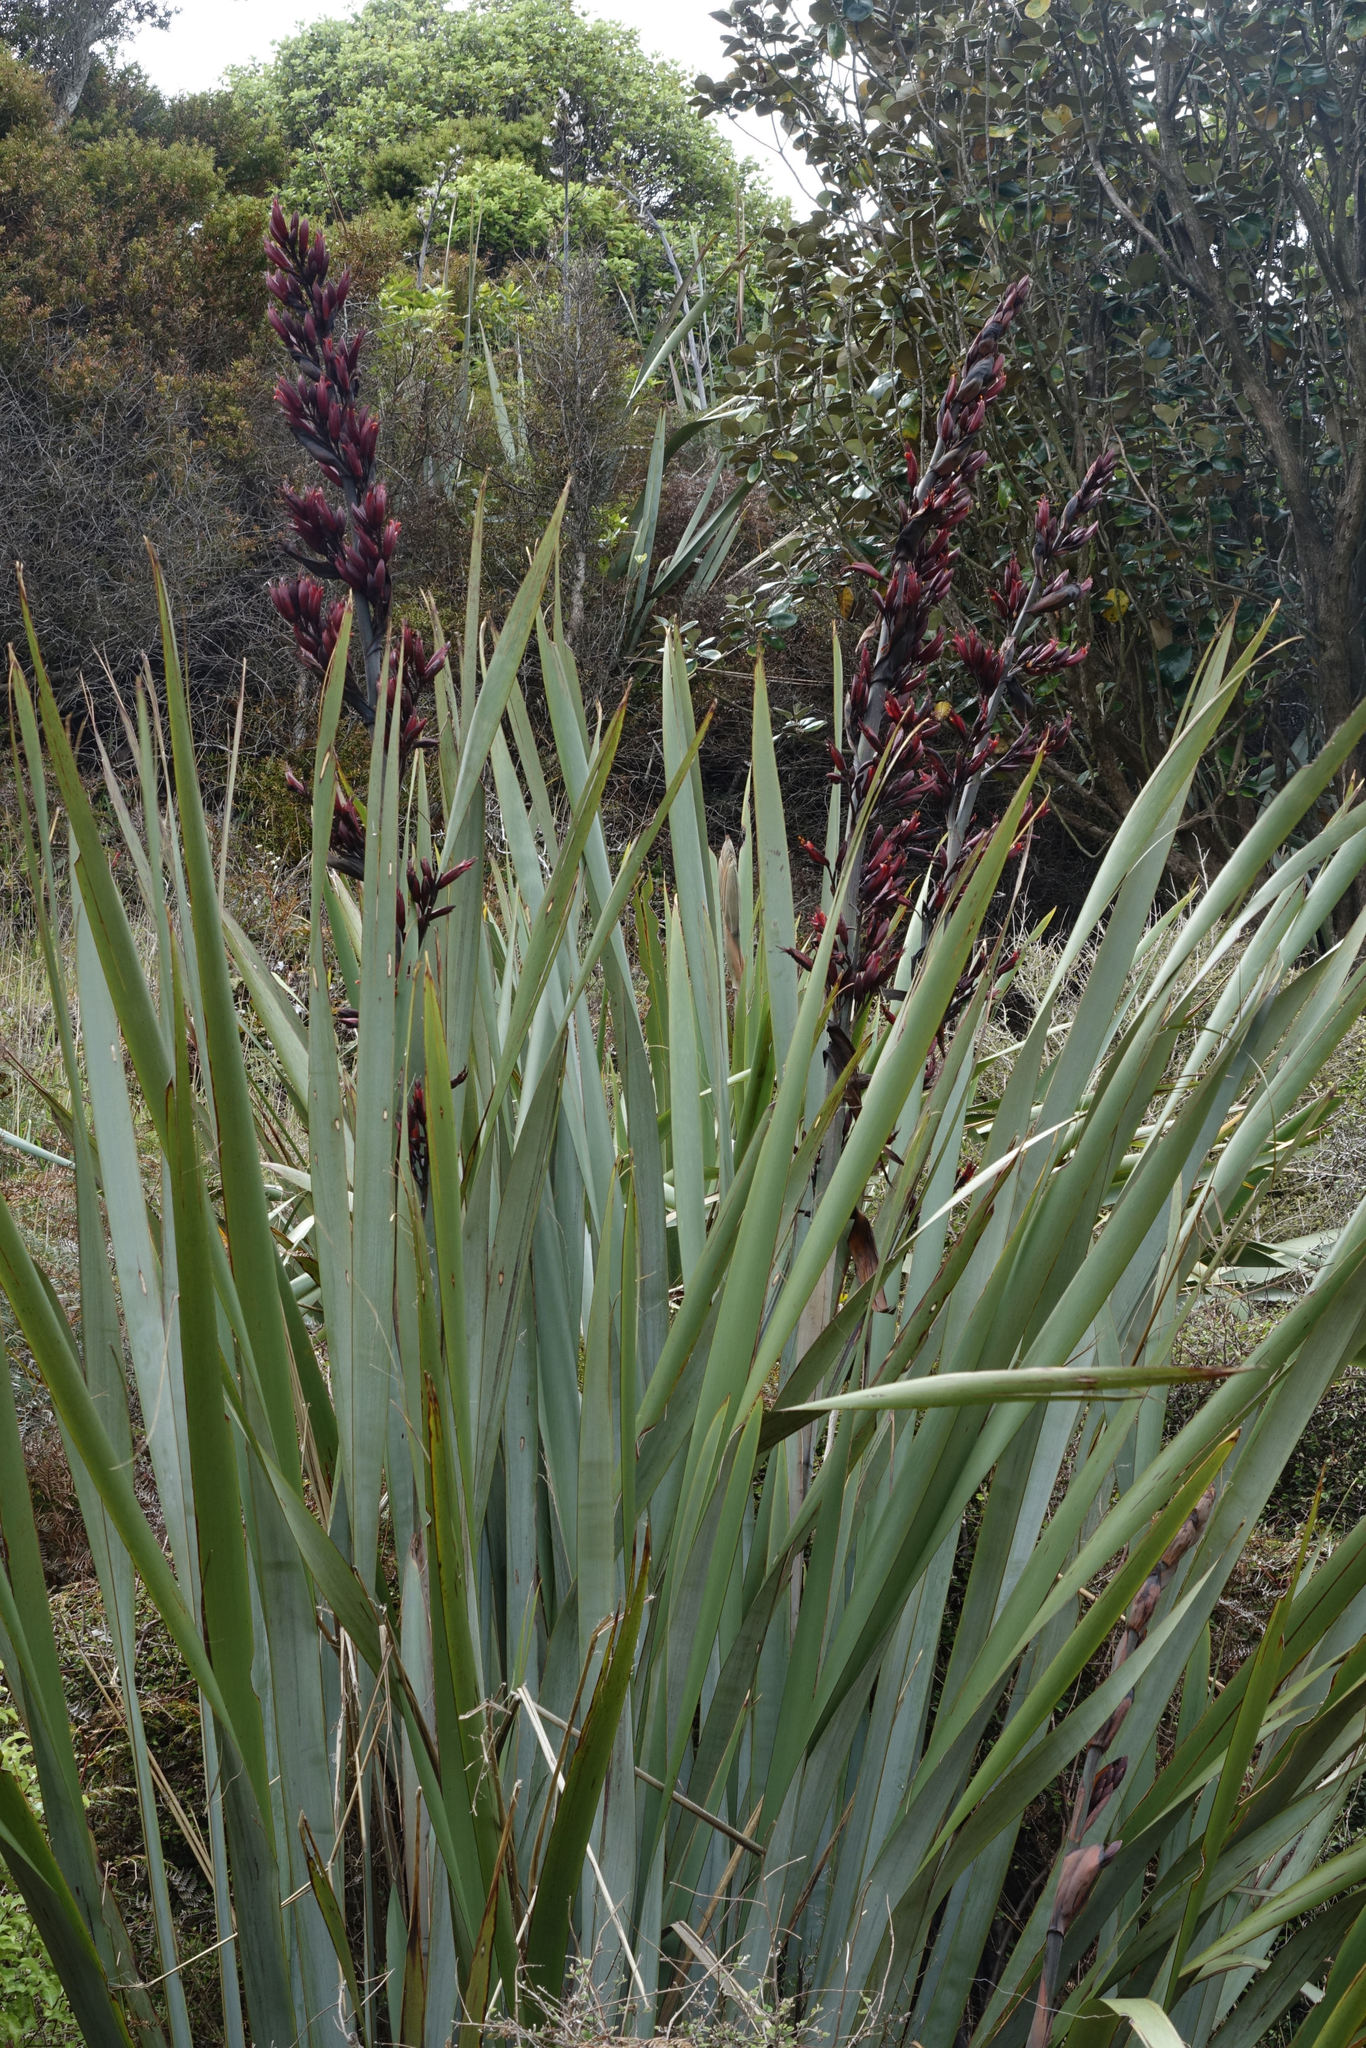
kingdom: Plantae
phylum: Tracheophyta
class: Liliopsida
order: Asparagales
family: Asphodelaceae
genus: Phormium
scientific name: Phormium tenax
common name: New zealand flax
